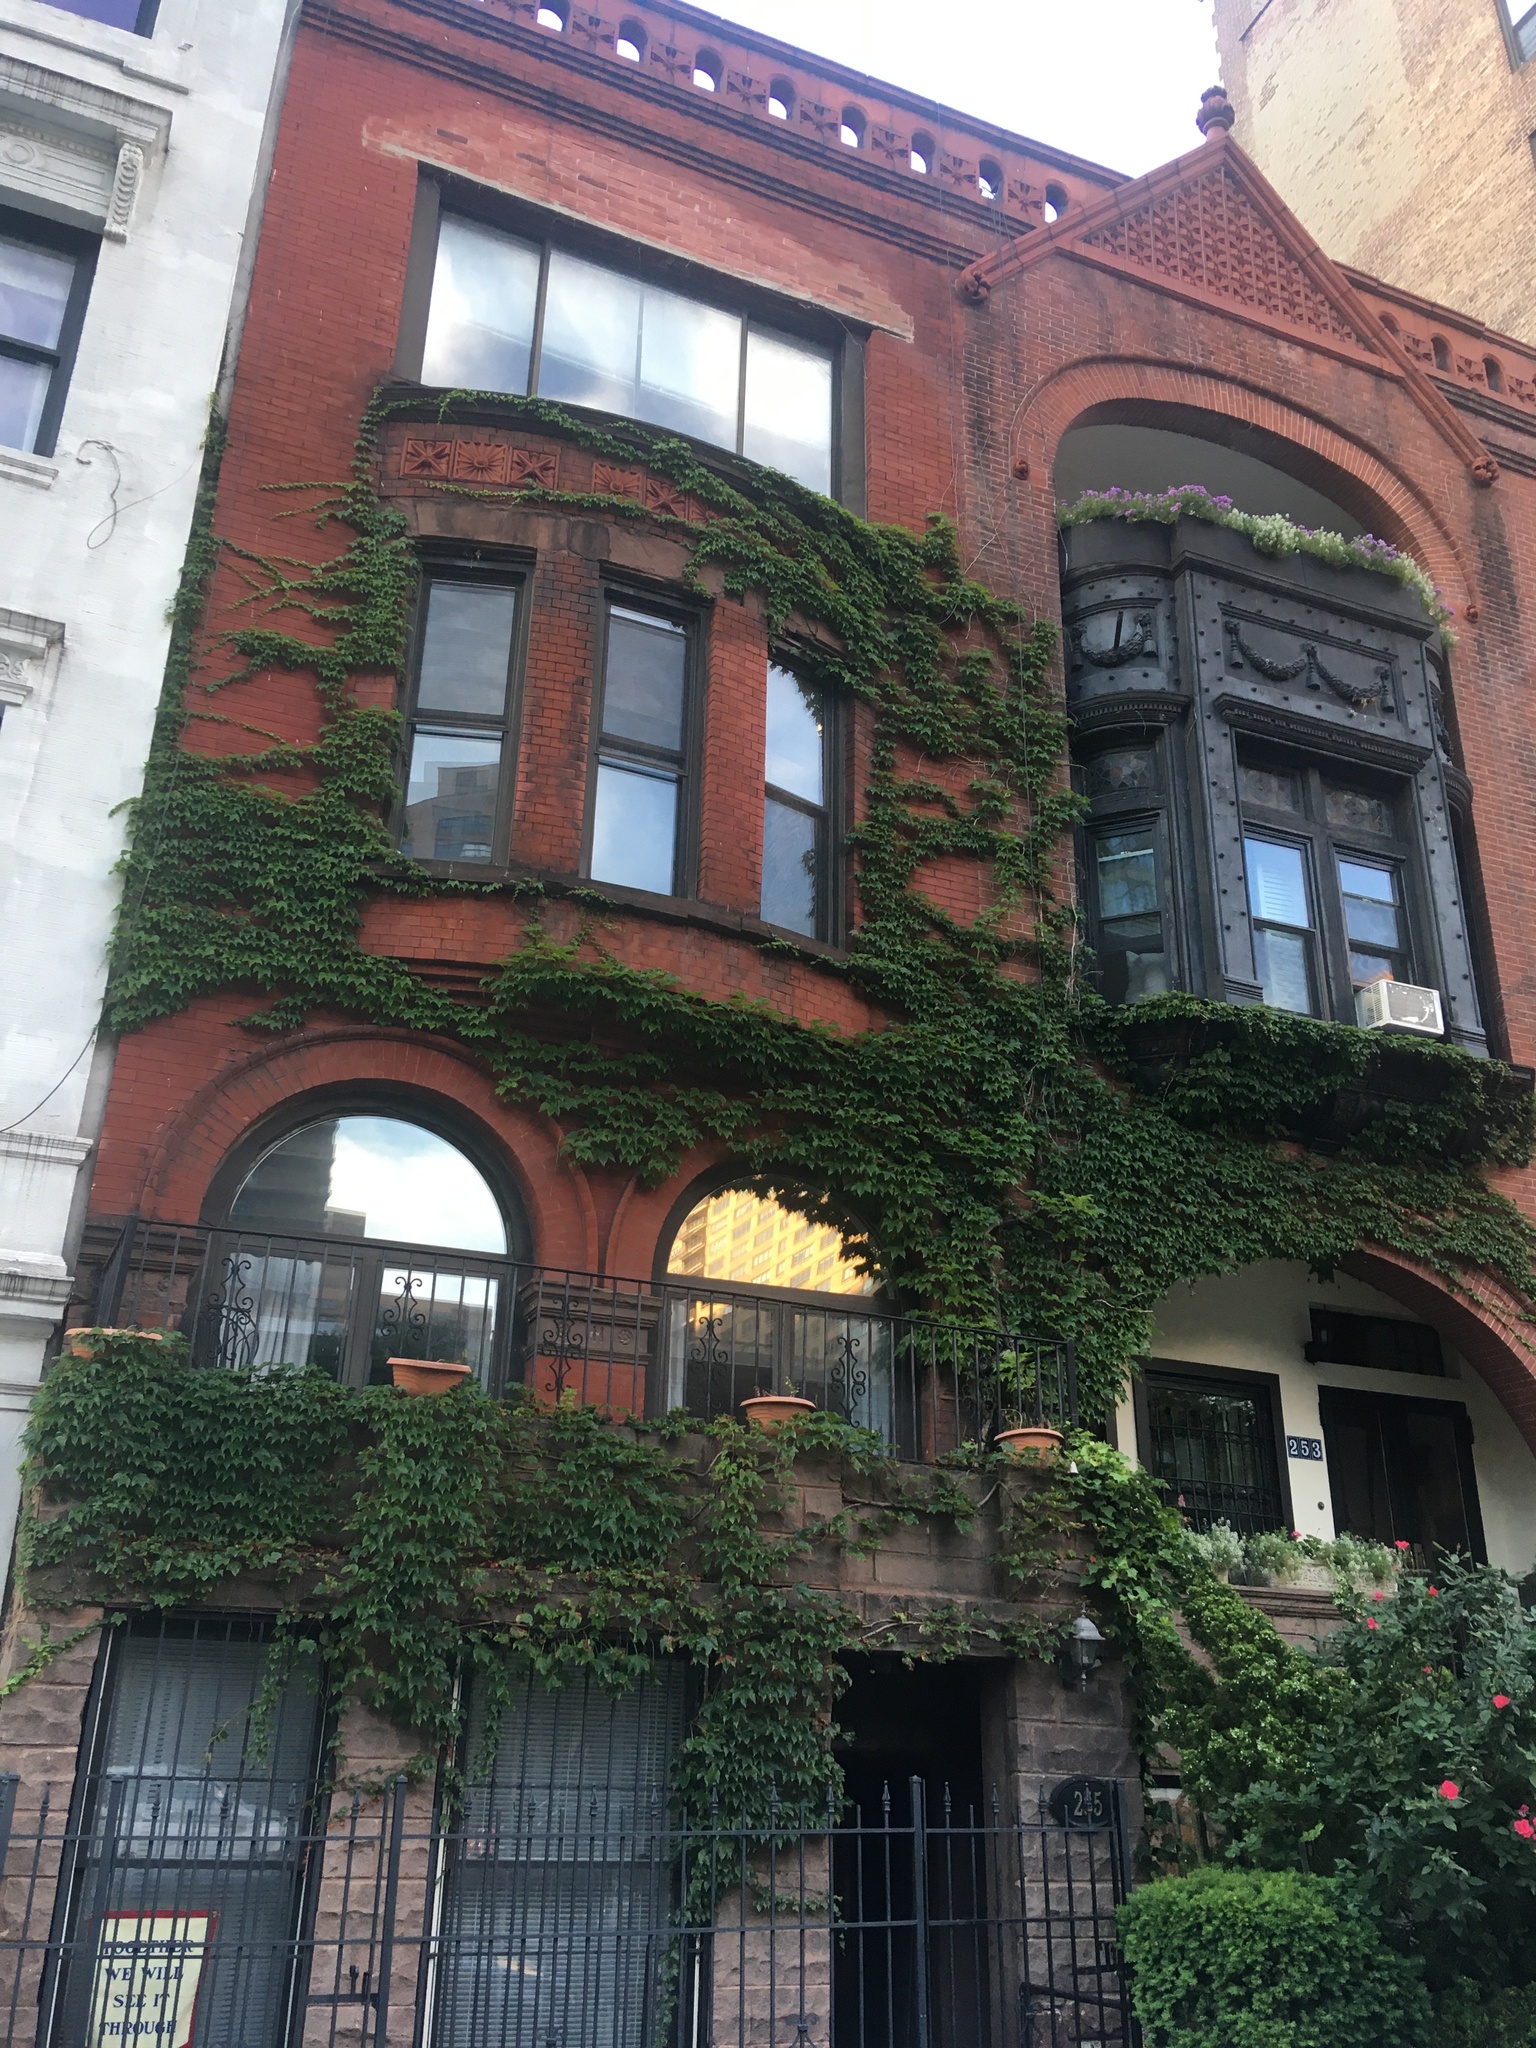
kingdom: Plantae
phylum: Tracheophyta
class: Magnoliopsida
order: Vitales
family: Vitaceae
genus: Parthenocissus
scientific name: Parthenocissus tricuspidata
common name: Boston ivy
